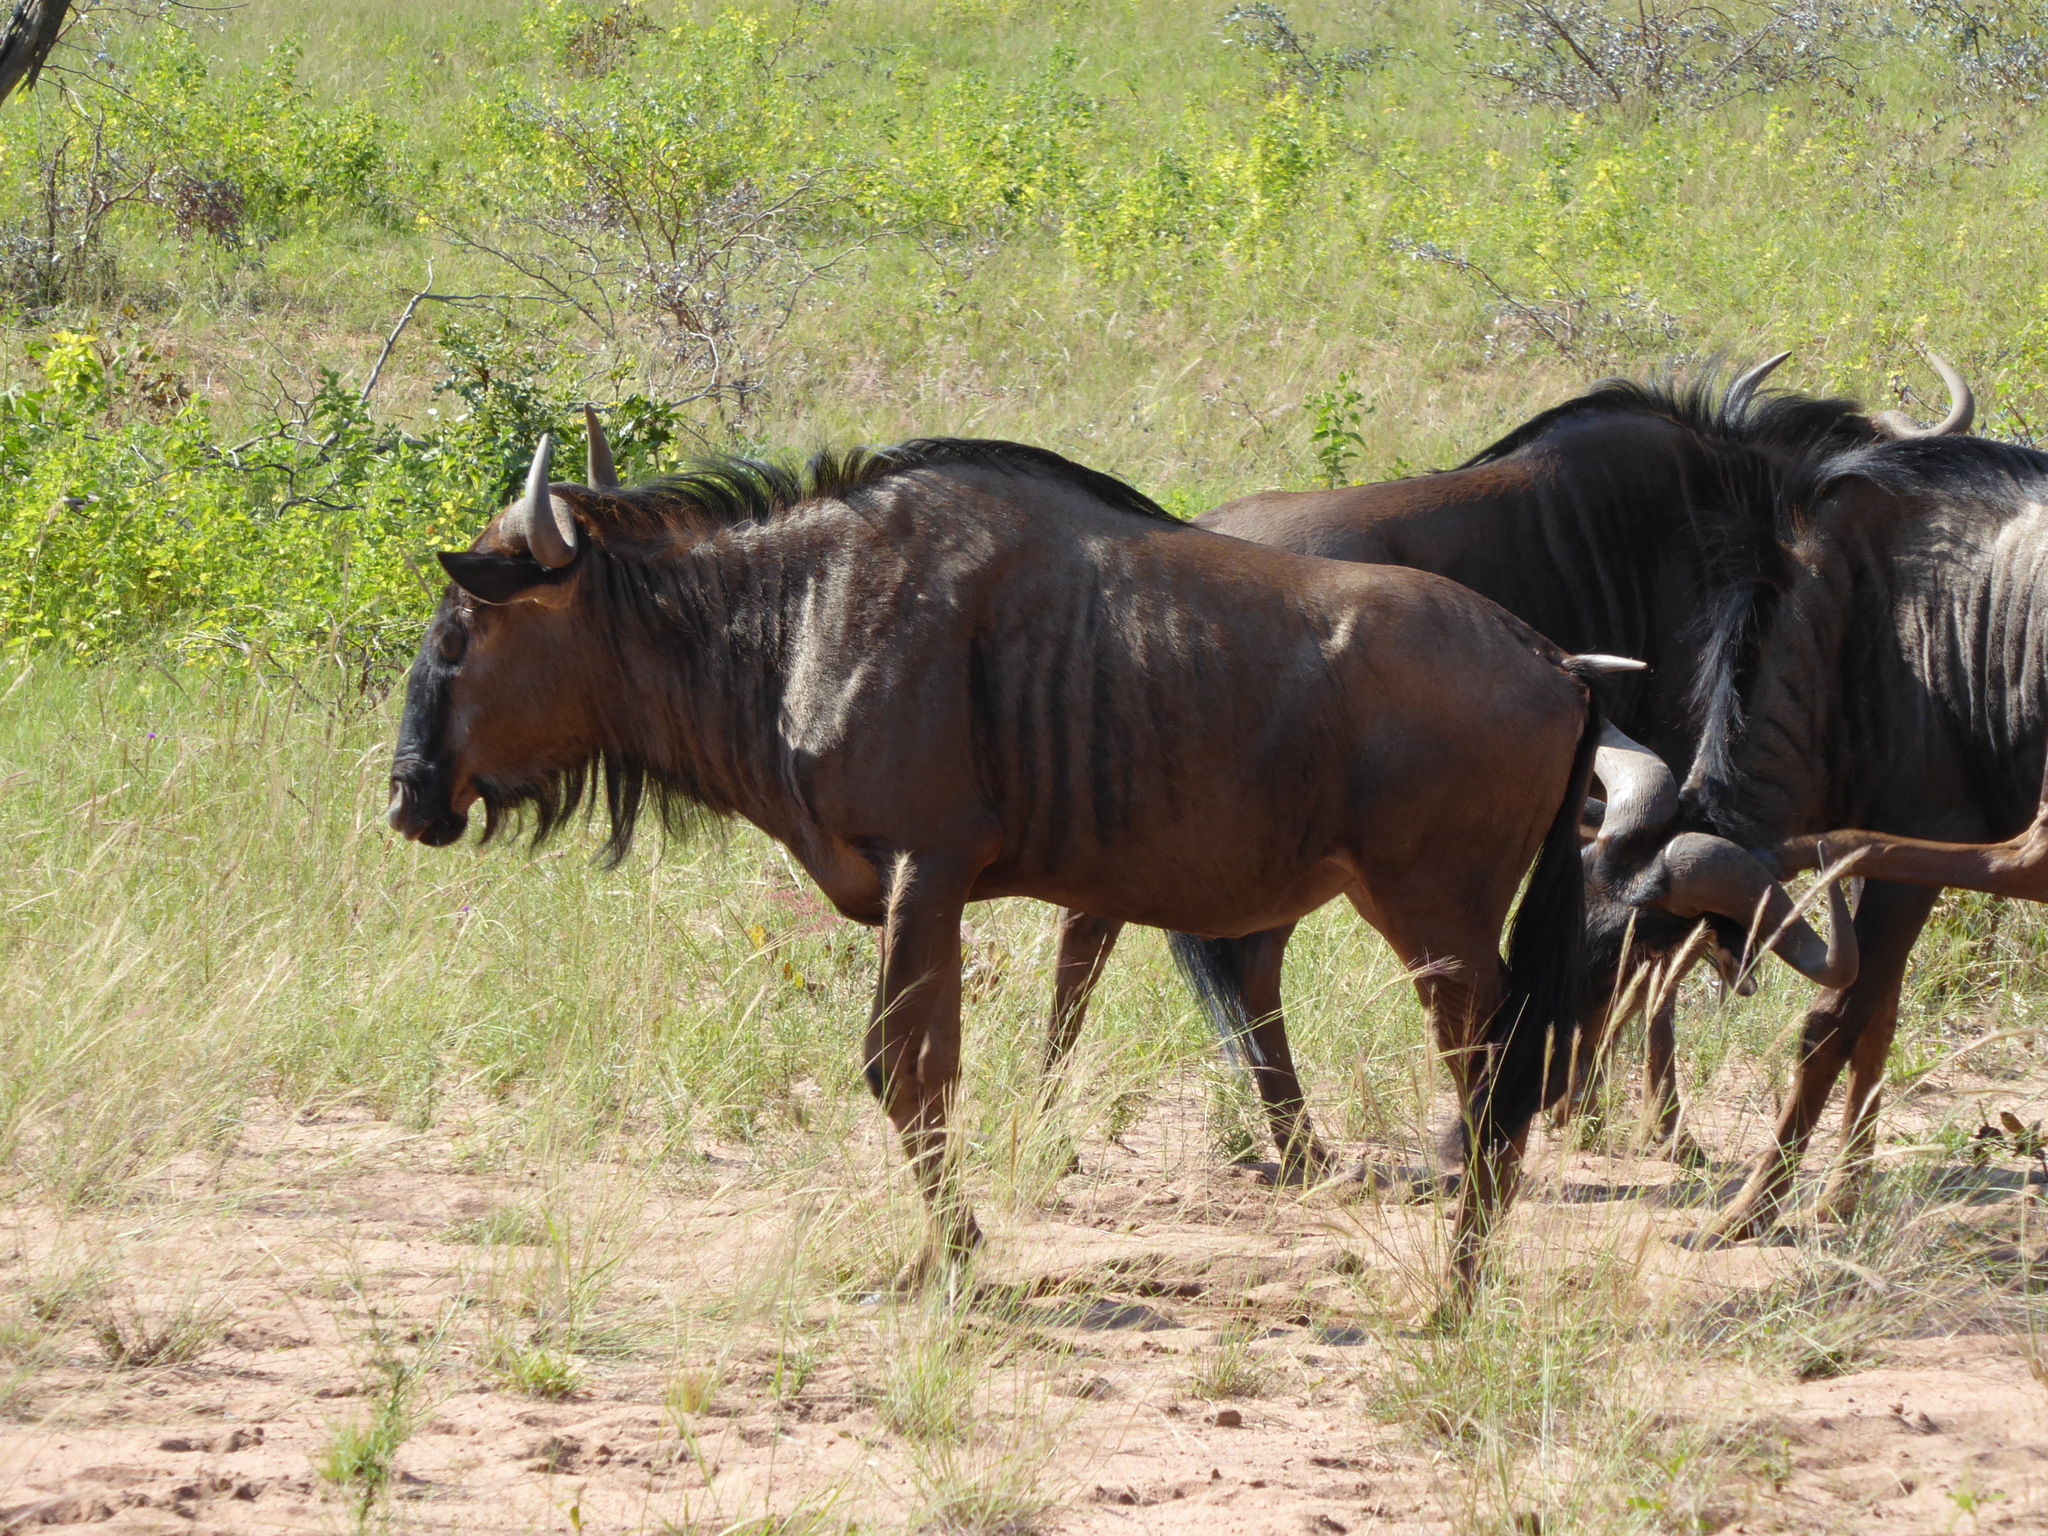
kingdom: Animalia
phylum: Chordata
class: Mammalia
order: Artiodactyla
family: Bovidae
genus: Connochaetes
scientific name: Connochaetes taurinus
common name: Blue wildebeest
